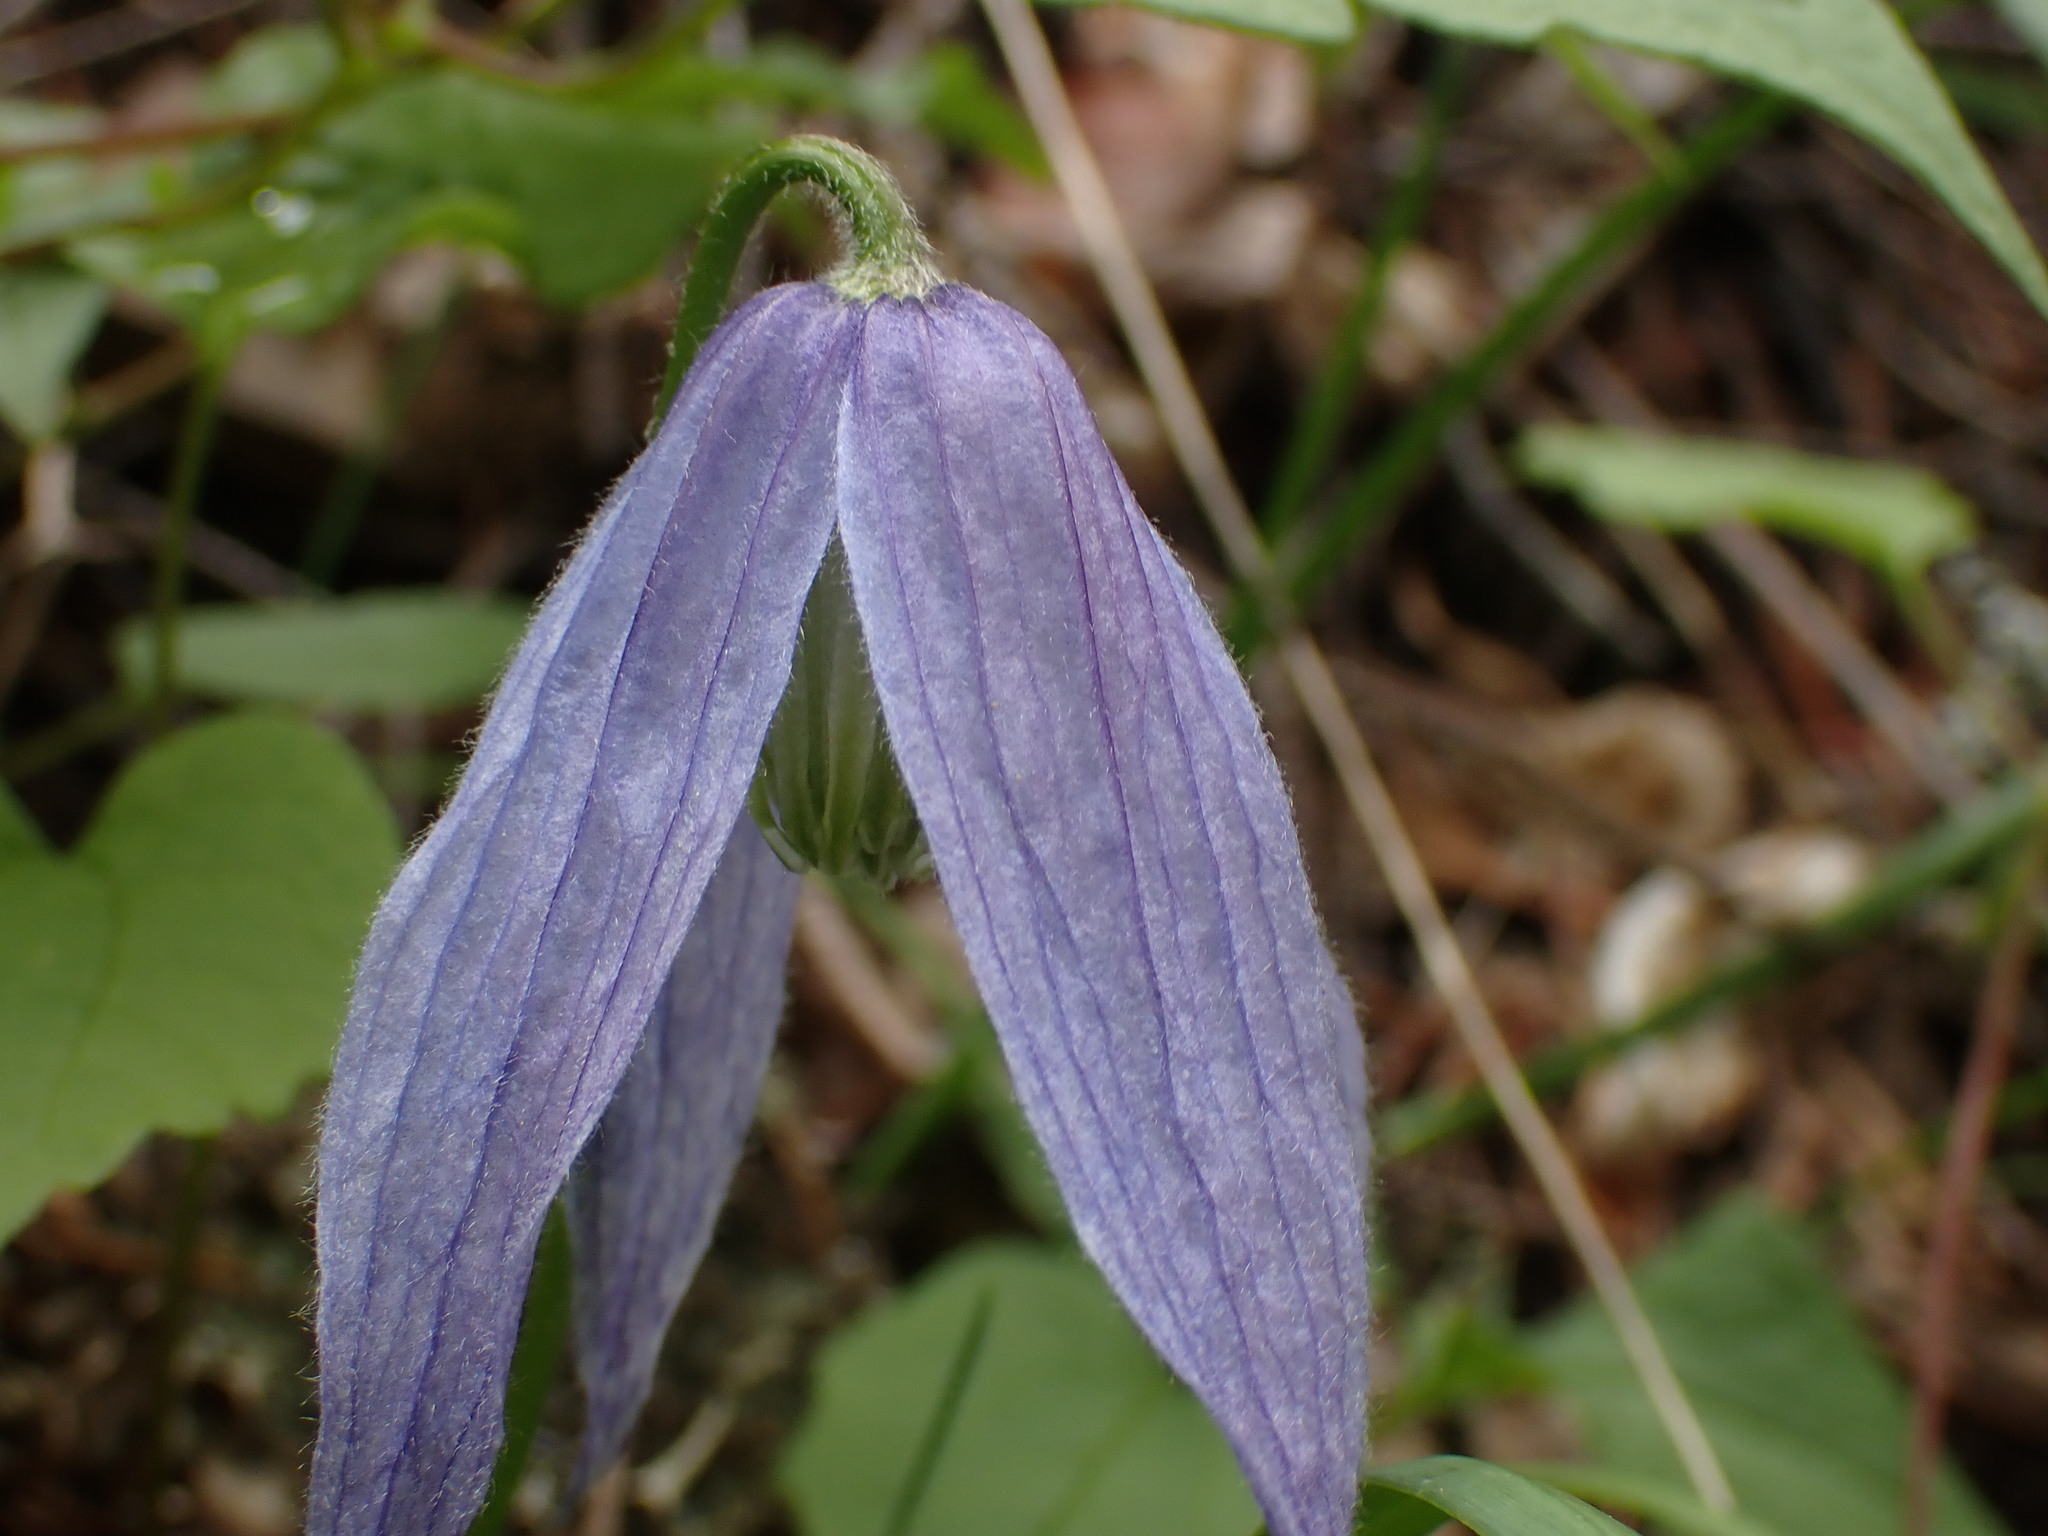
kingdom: Plantae
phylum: Tracheophyta
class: Magnoliopsida
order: Ranunculales
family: Ranunculaceae
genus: Clematis
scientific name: Clematis occidentalis
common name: Purple clematis
